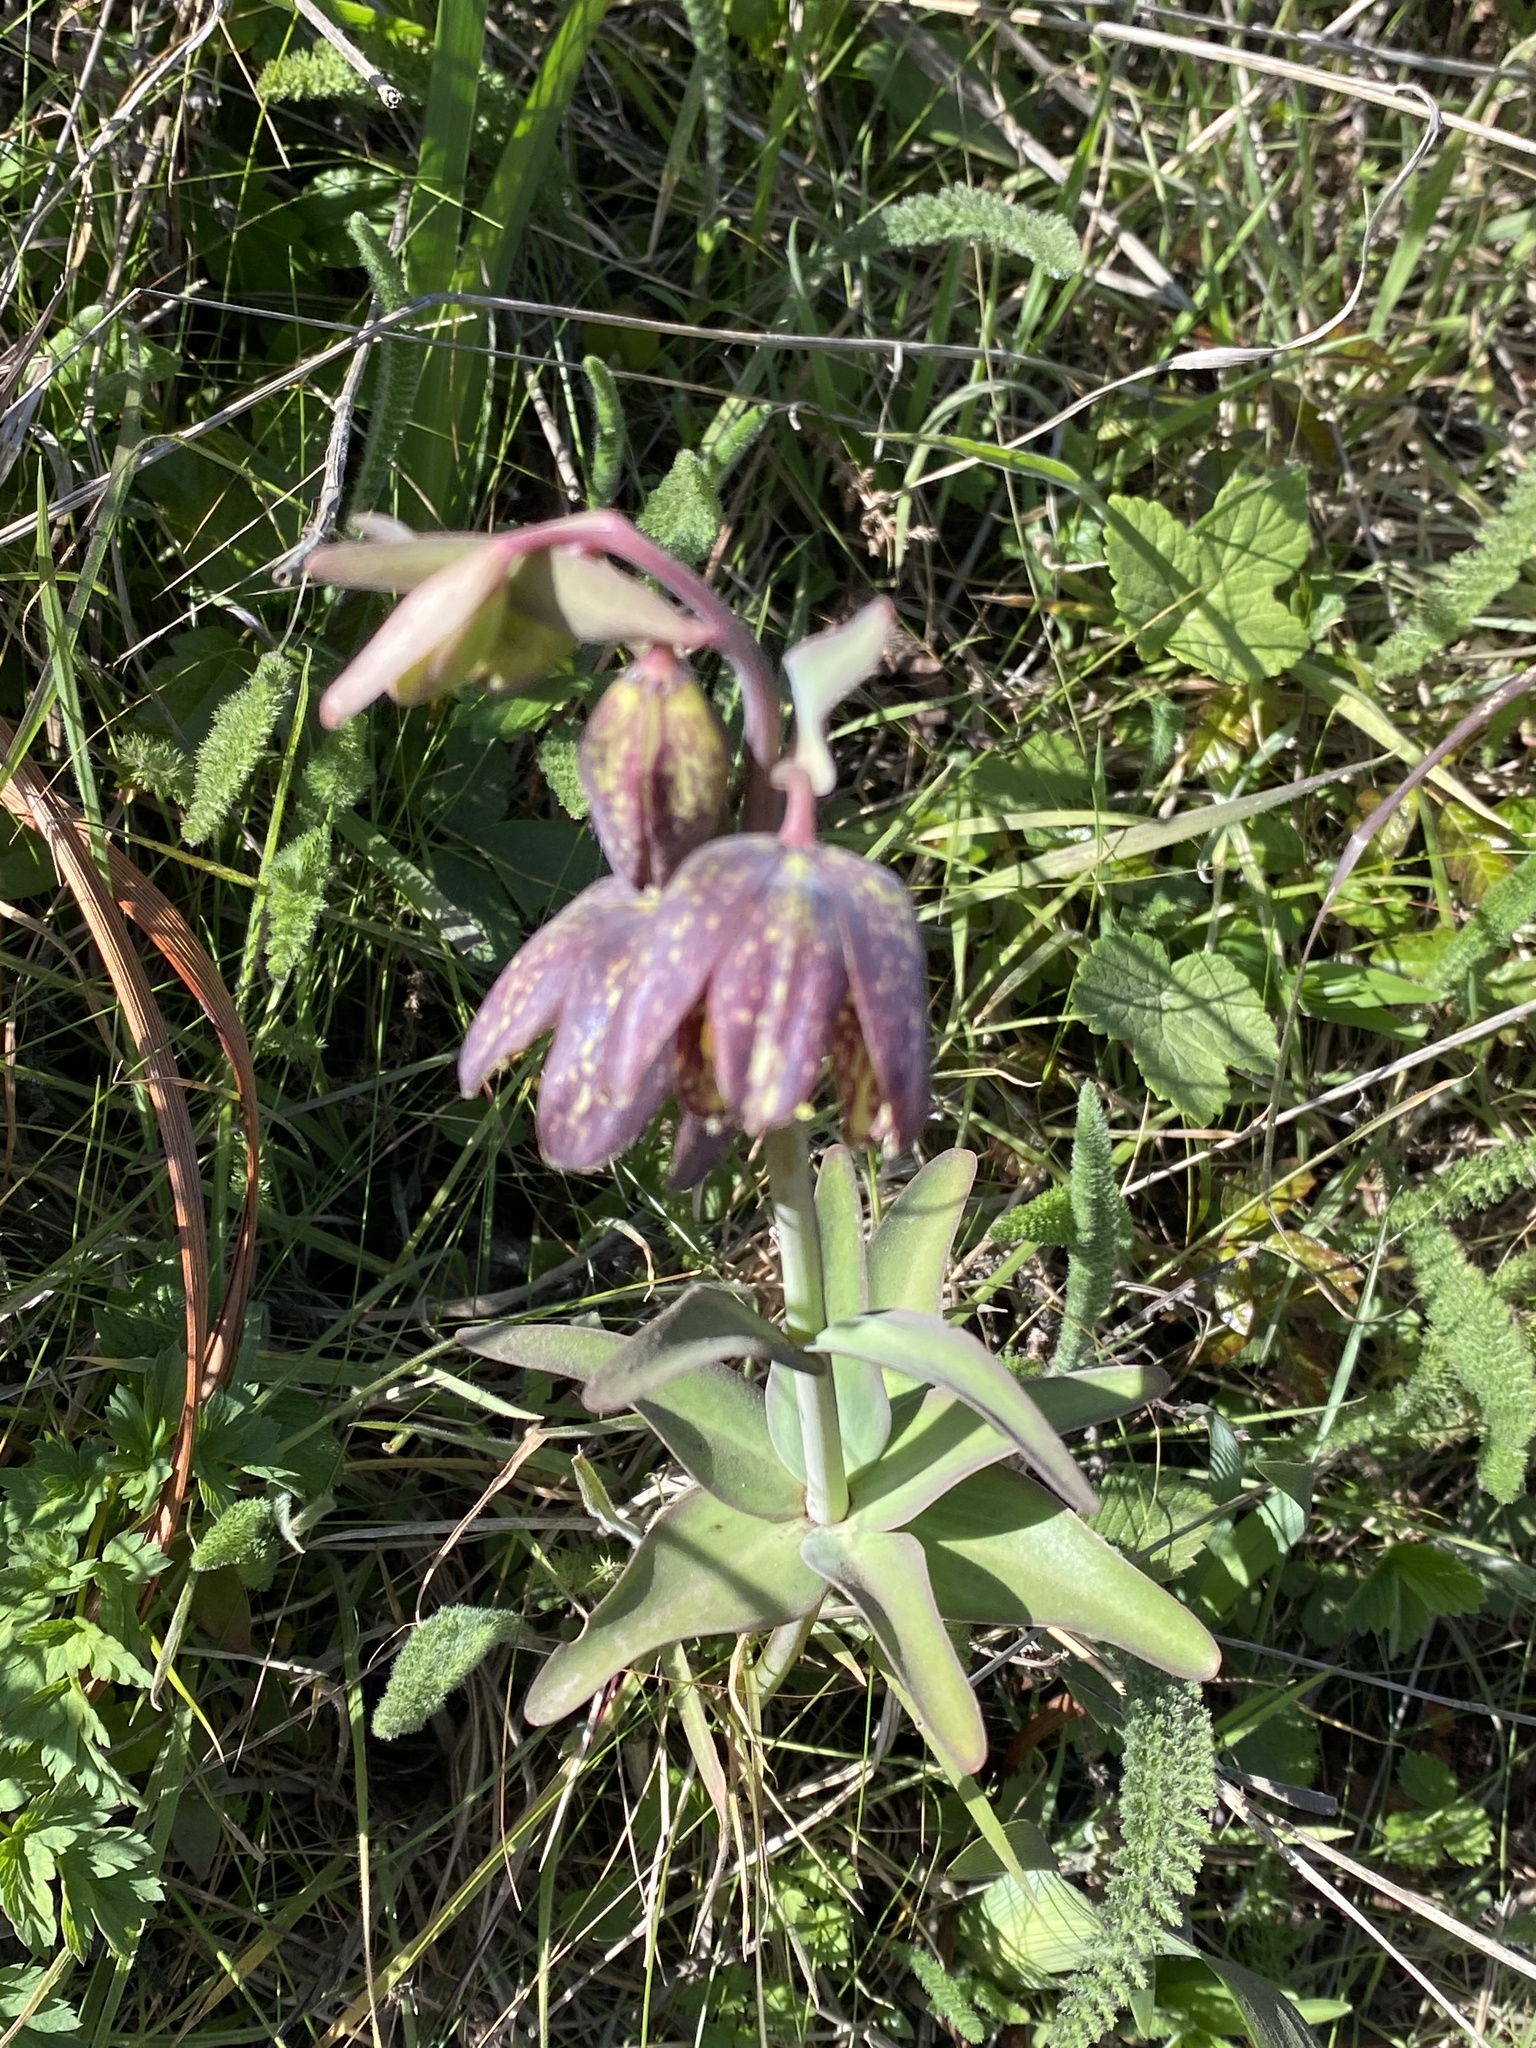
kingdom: Plantae
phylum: Tracheophyta
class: Liliopsida
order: Liliales
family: Liliaceae
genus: Fritillaria
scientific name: Fritillaria affinis
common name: Ojai fritillary
